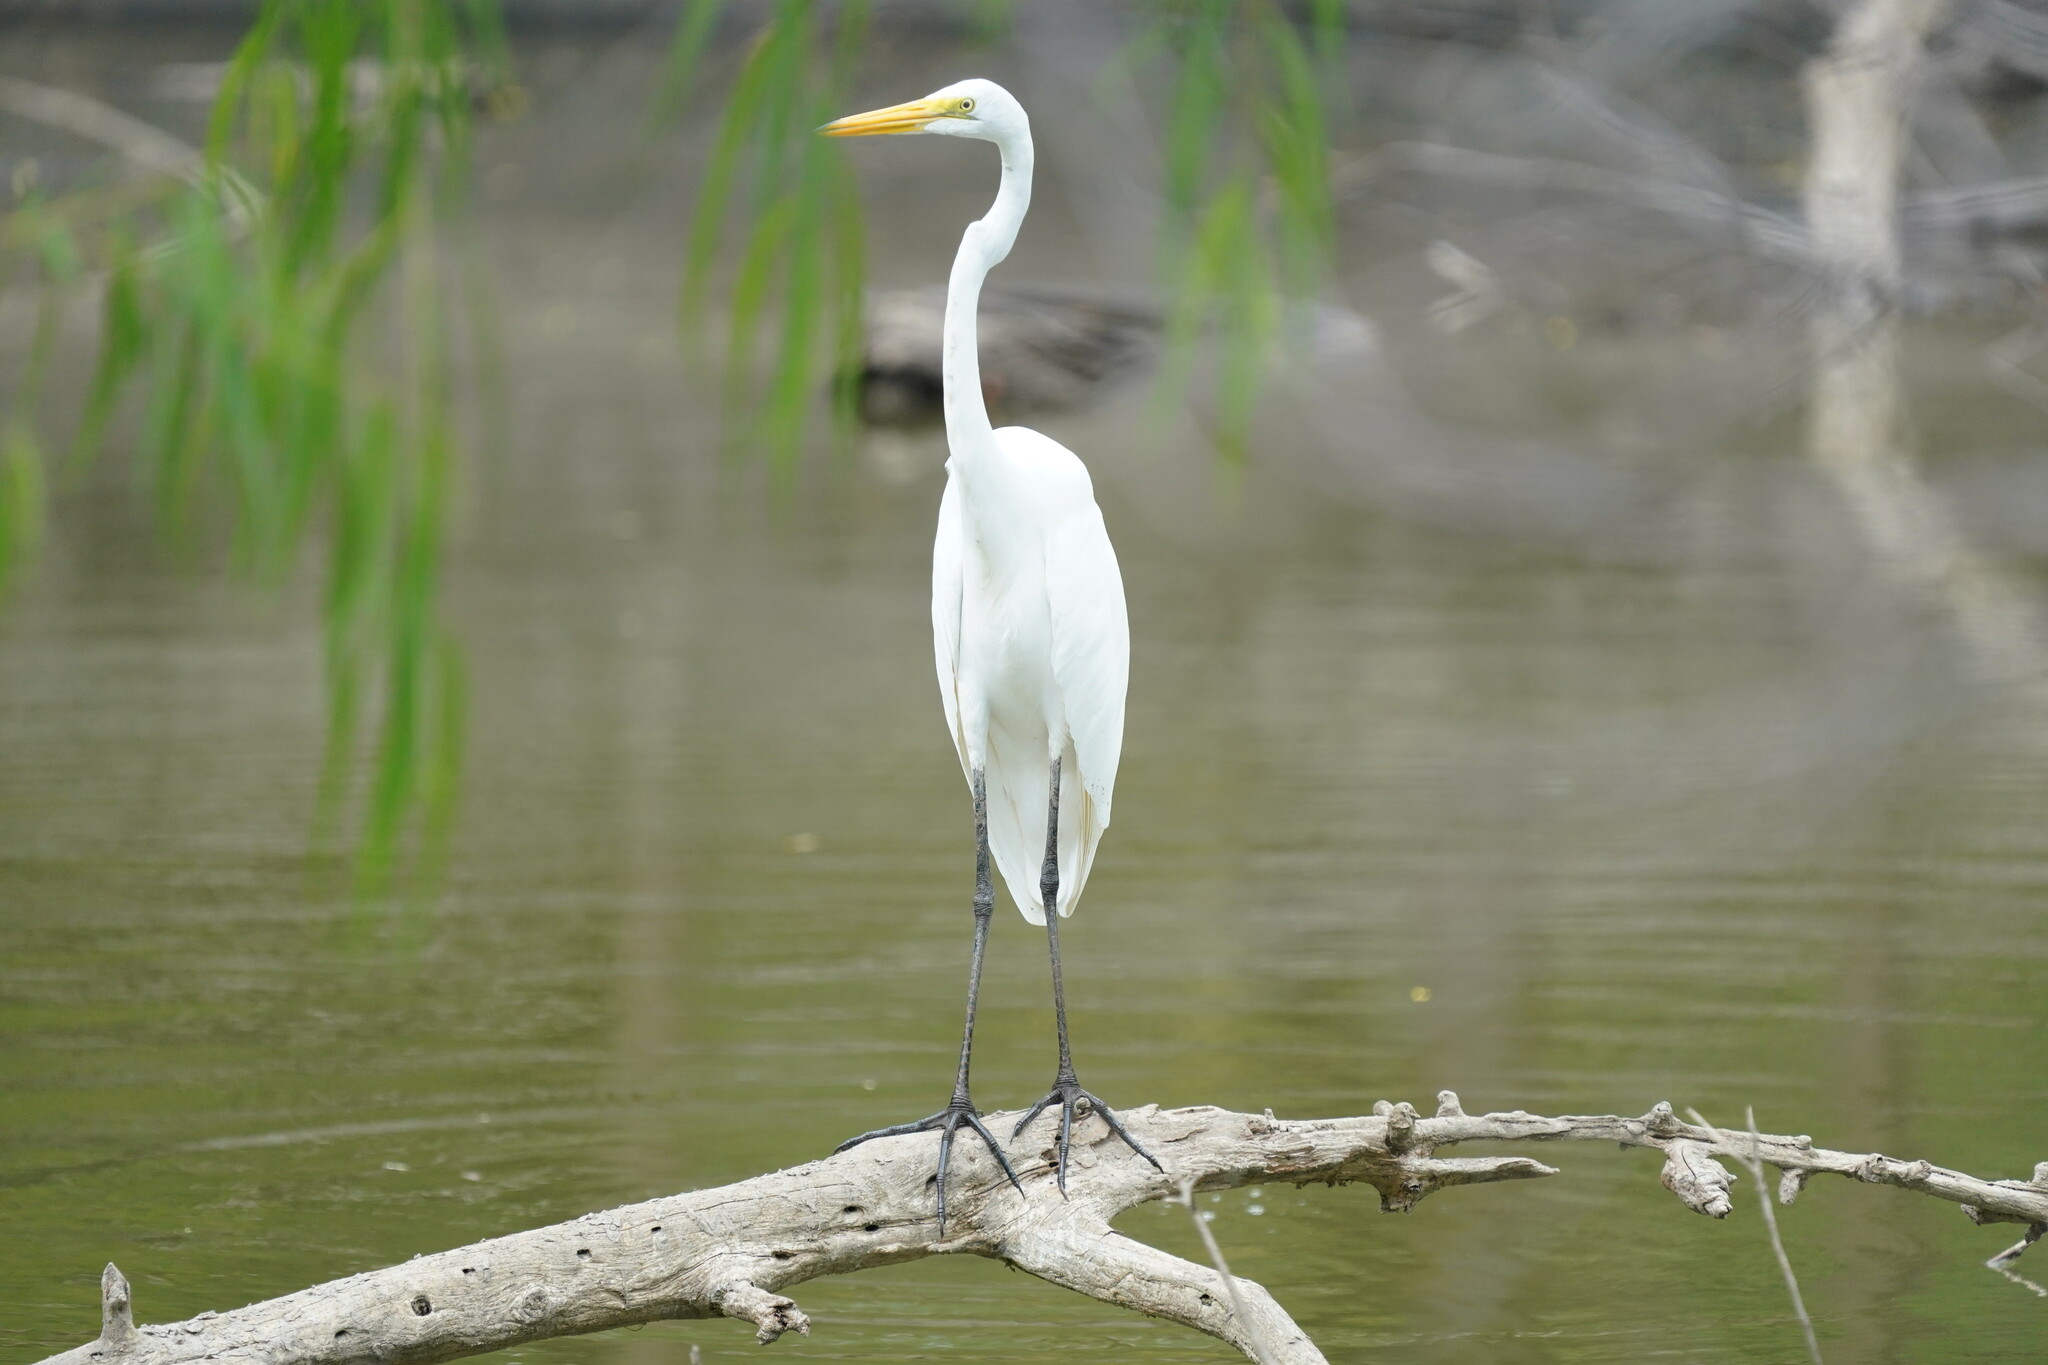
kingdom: Animalia
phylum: Chordata
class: Aves
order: Pelecaniformes
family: Ardeidae
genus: Ardea
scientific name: Ardea alba
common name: Great egret
